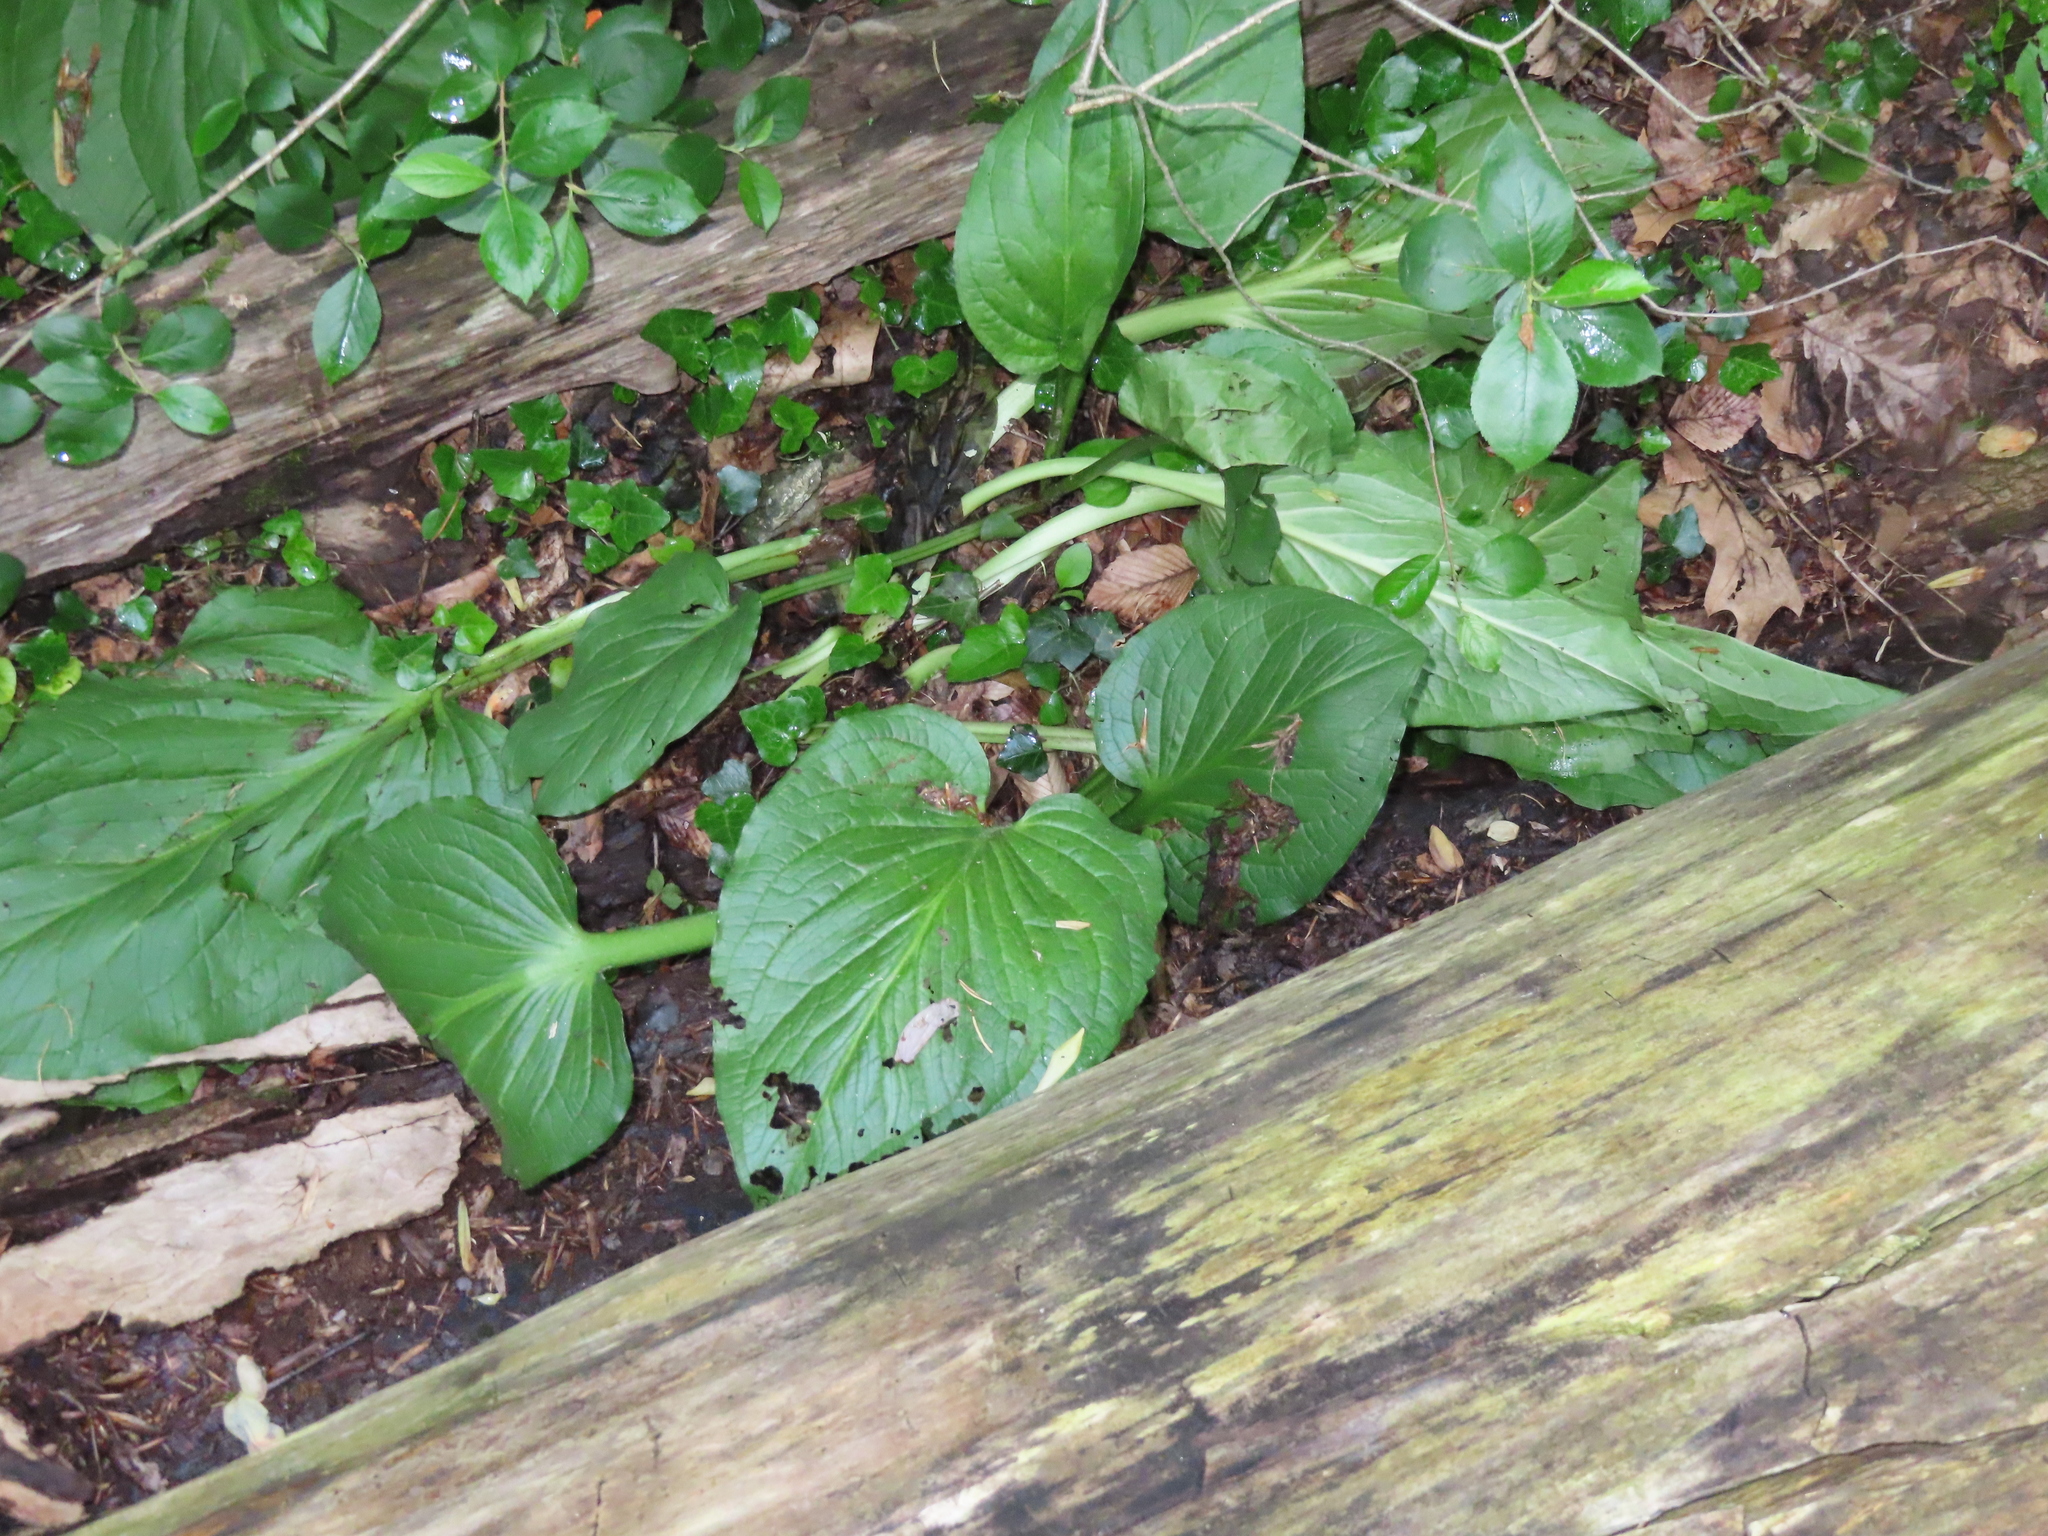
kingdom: Plantae
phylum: Tracheophyta
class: Liliopsida
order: Alismatales
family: Araceae
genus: Symplocarpus
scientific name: Symplocarpus foetidus
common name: Eastern skunk cabbage
